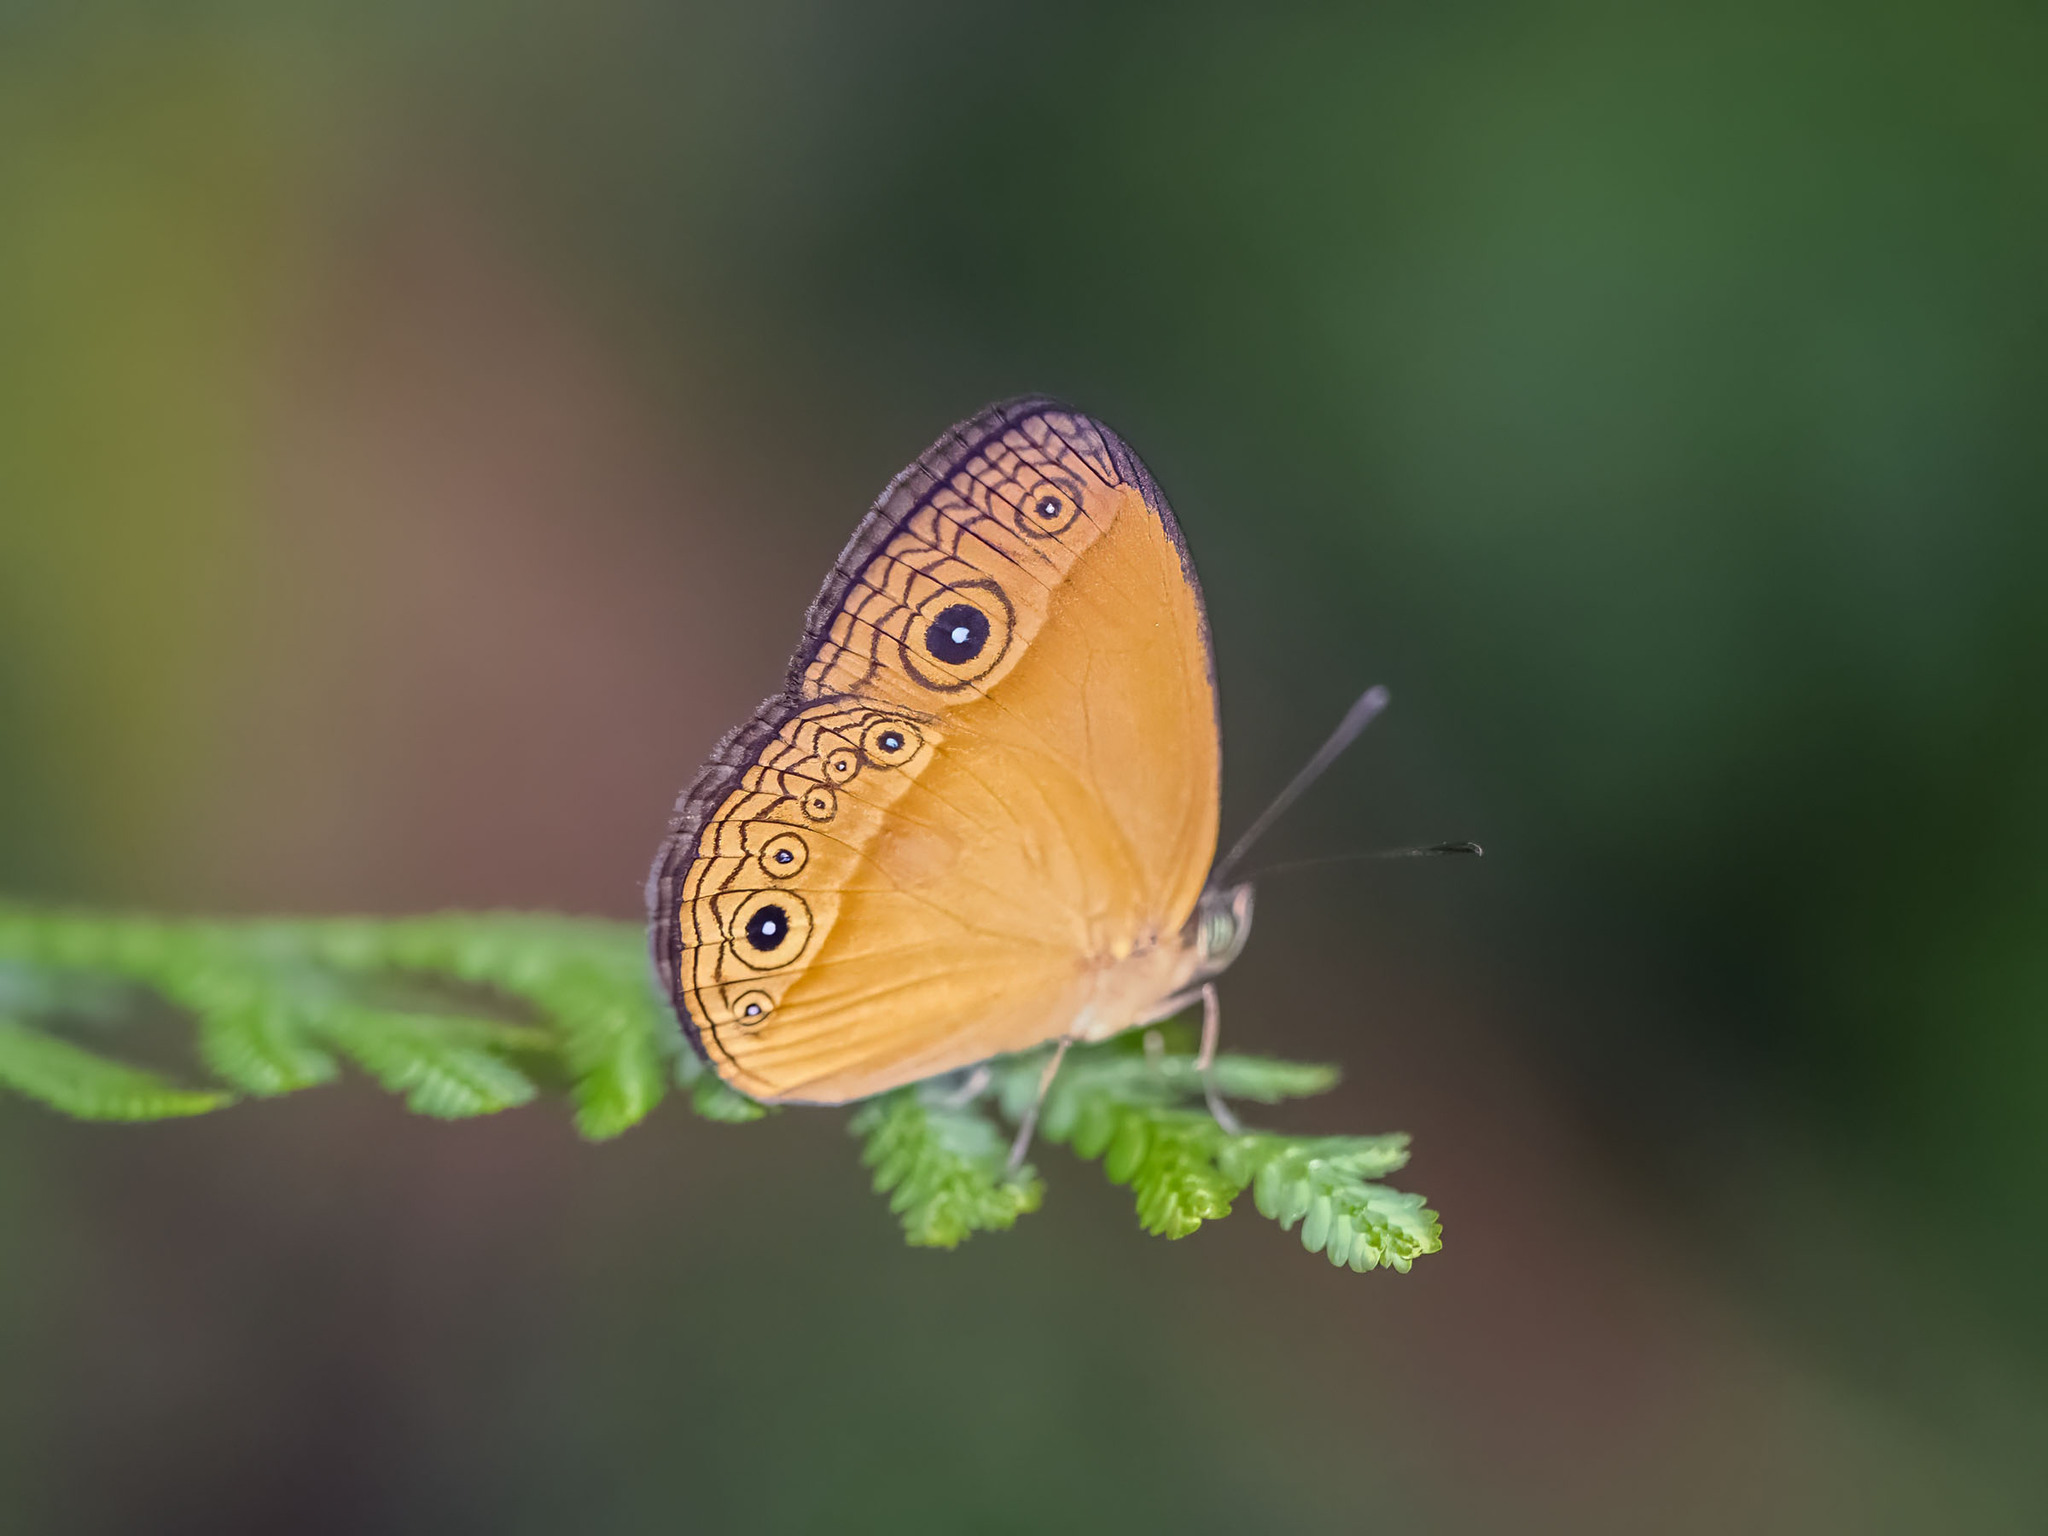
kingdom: Animalia
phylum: Arthropoda
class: Insecta
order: Lepidoptera
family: Nymphalidae
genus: Mycalesis
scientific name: Mycalesis phidon
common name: Hewitson's bushbrown
